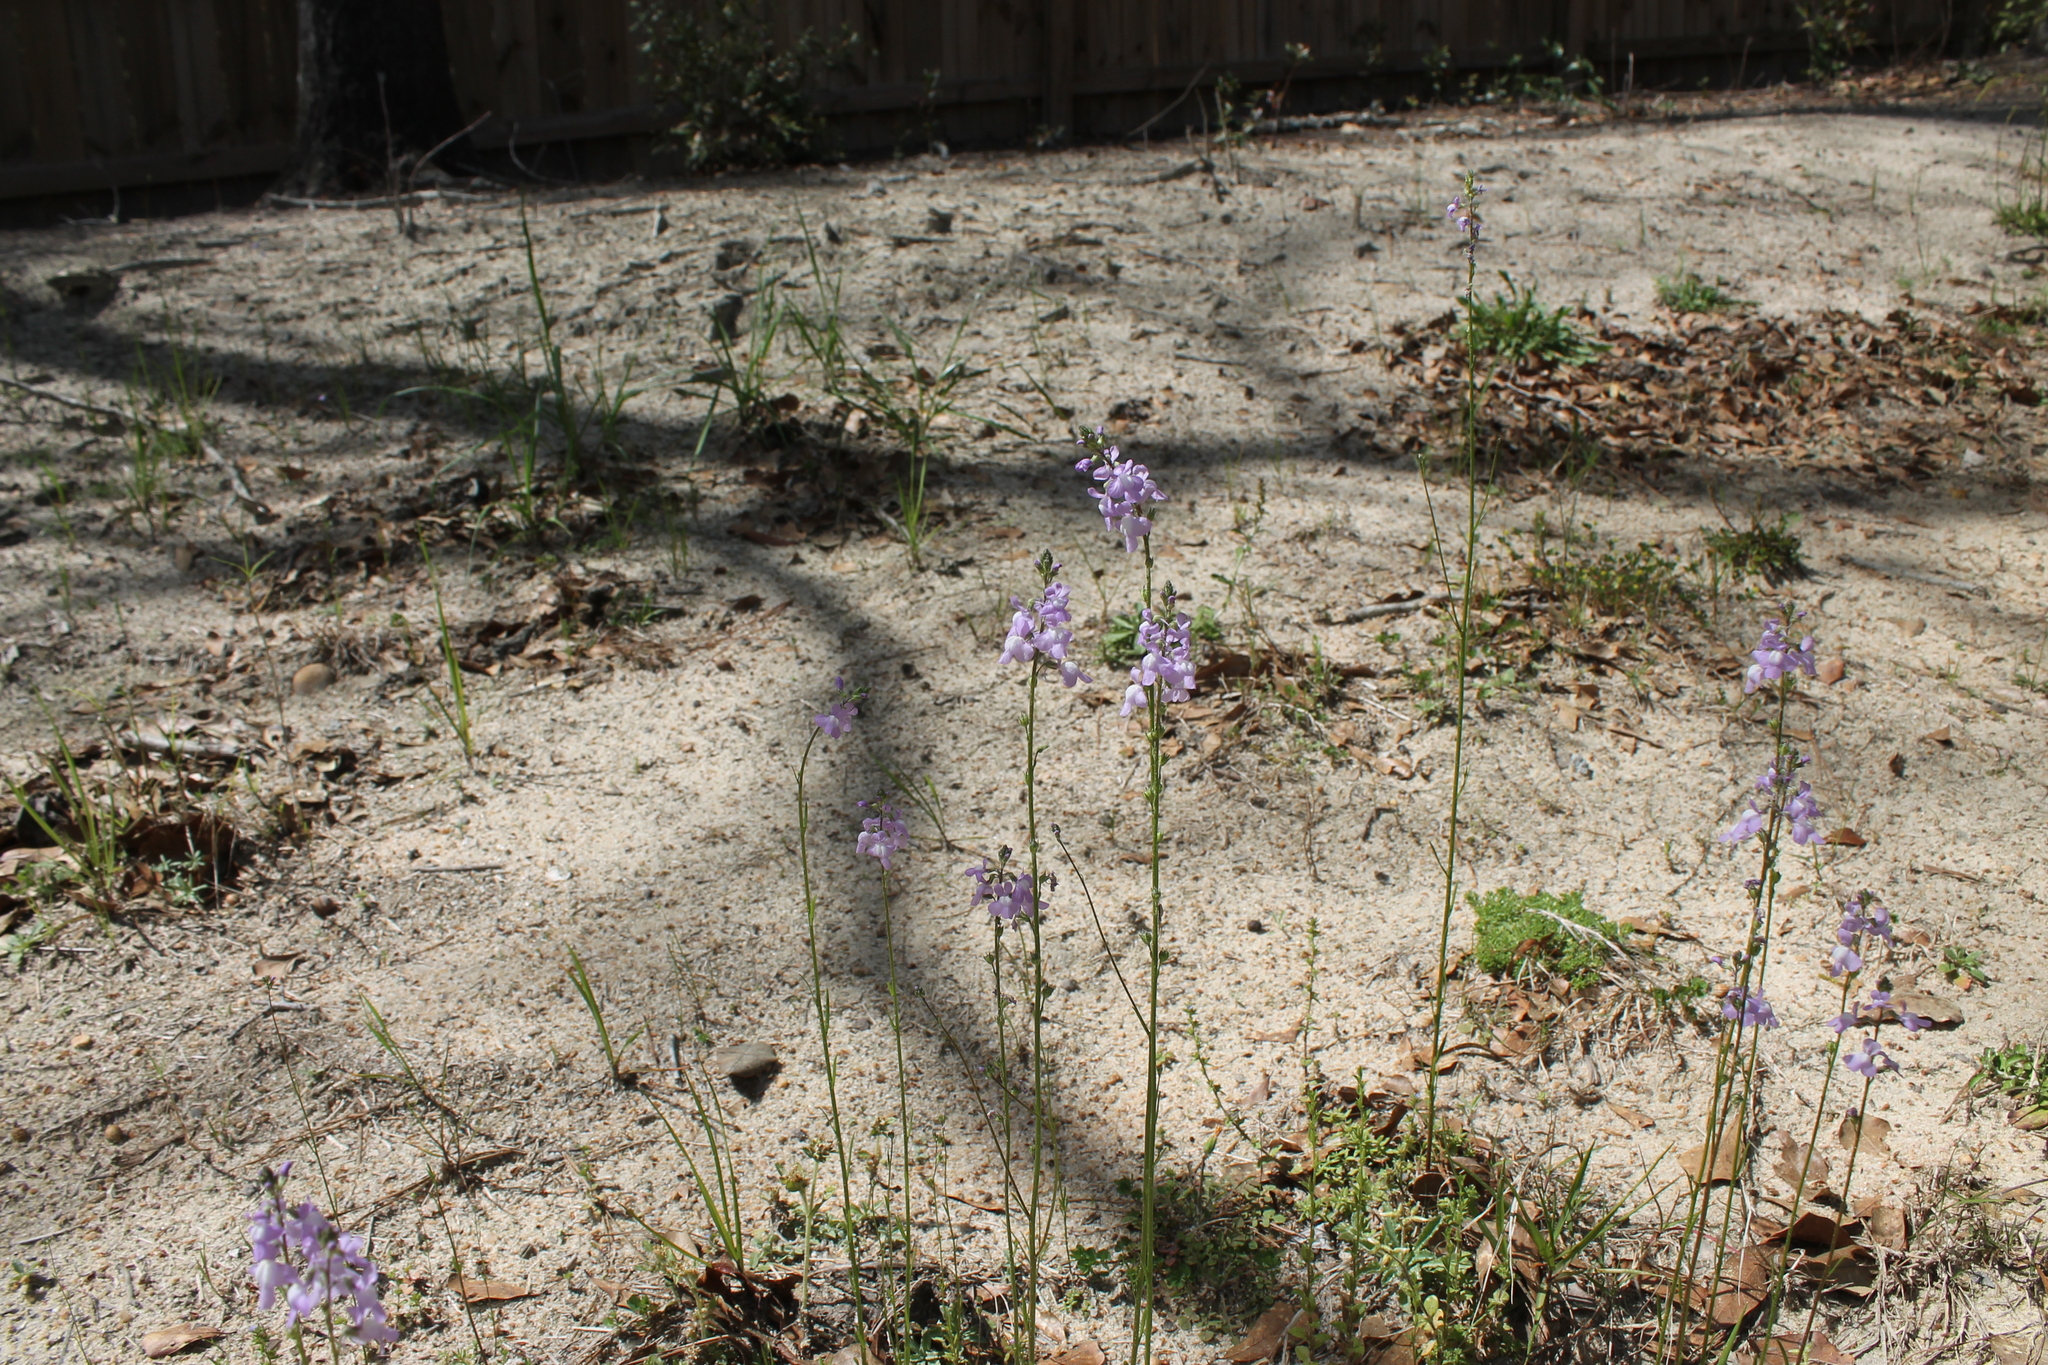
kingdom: Plantae
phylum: Tracheophyta
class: Magnoliopsida
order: Lamiales
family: Plantaginaceae
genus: Nuttallanthus
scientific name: Nuttallanthus canadensis
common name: Blue toadflax
